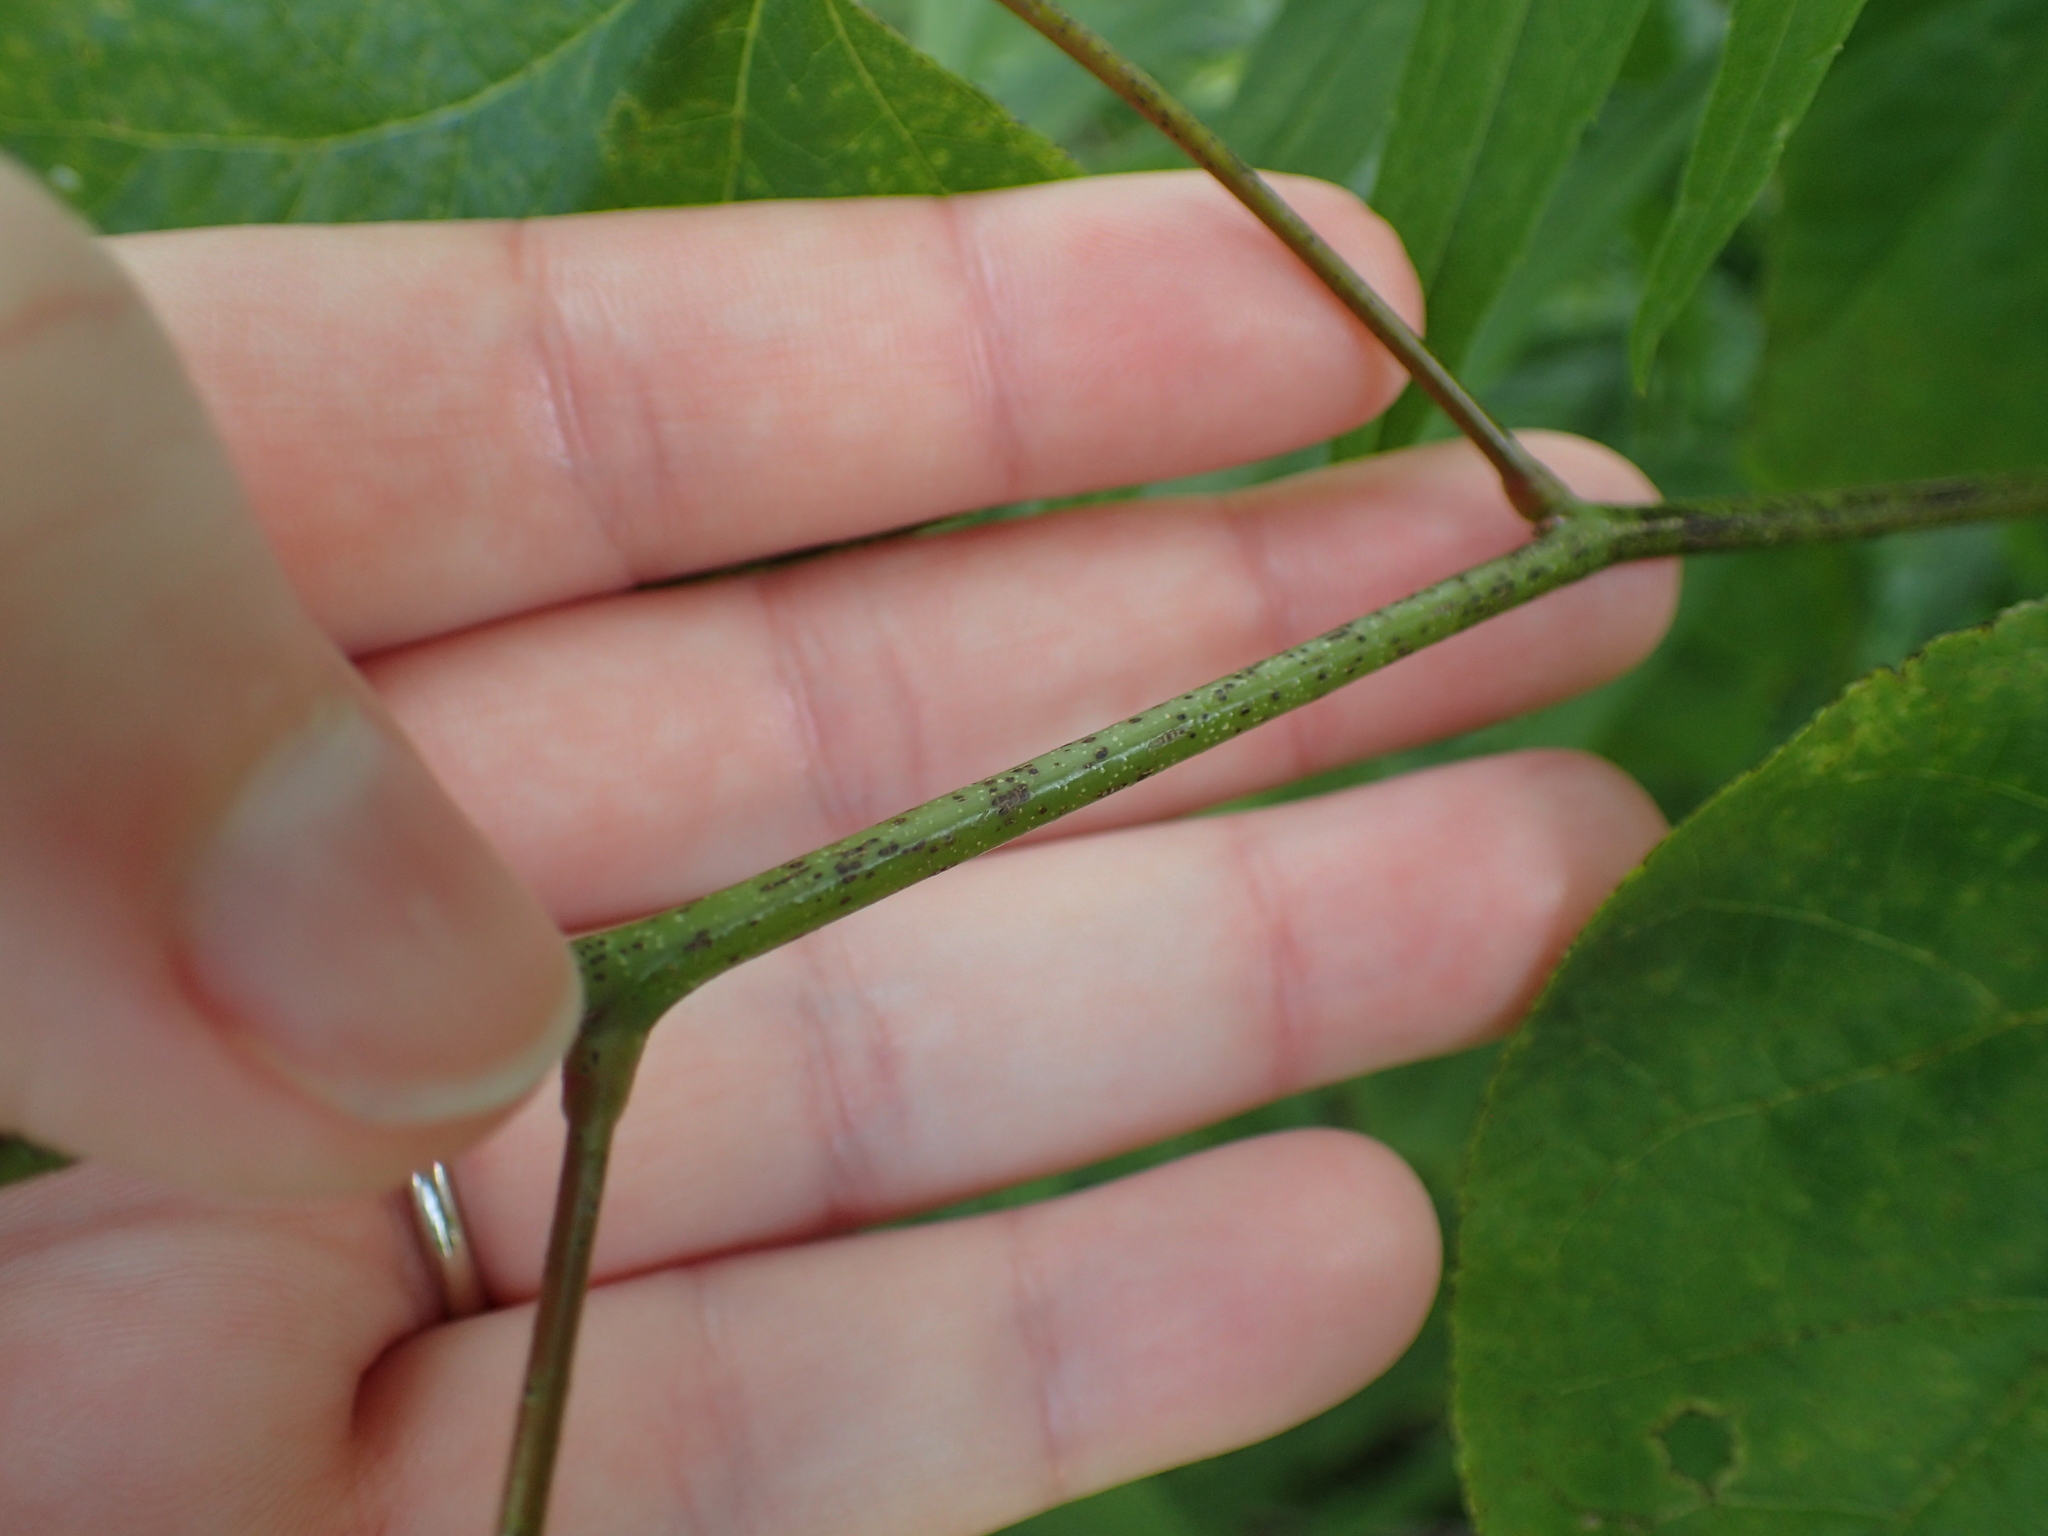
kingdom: Plantae
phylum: Tracheophyta
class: Magnoliopsida
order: Fabales
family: Fabaceae
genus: Cercis
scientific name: Cercis canadensis
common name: Eastern redbud
